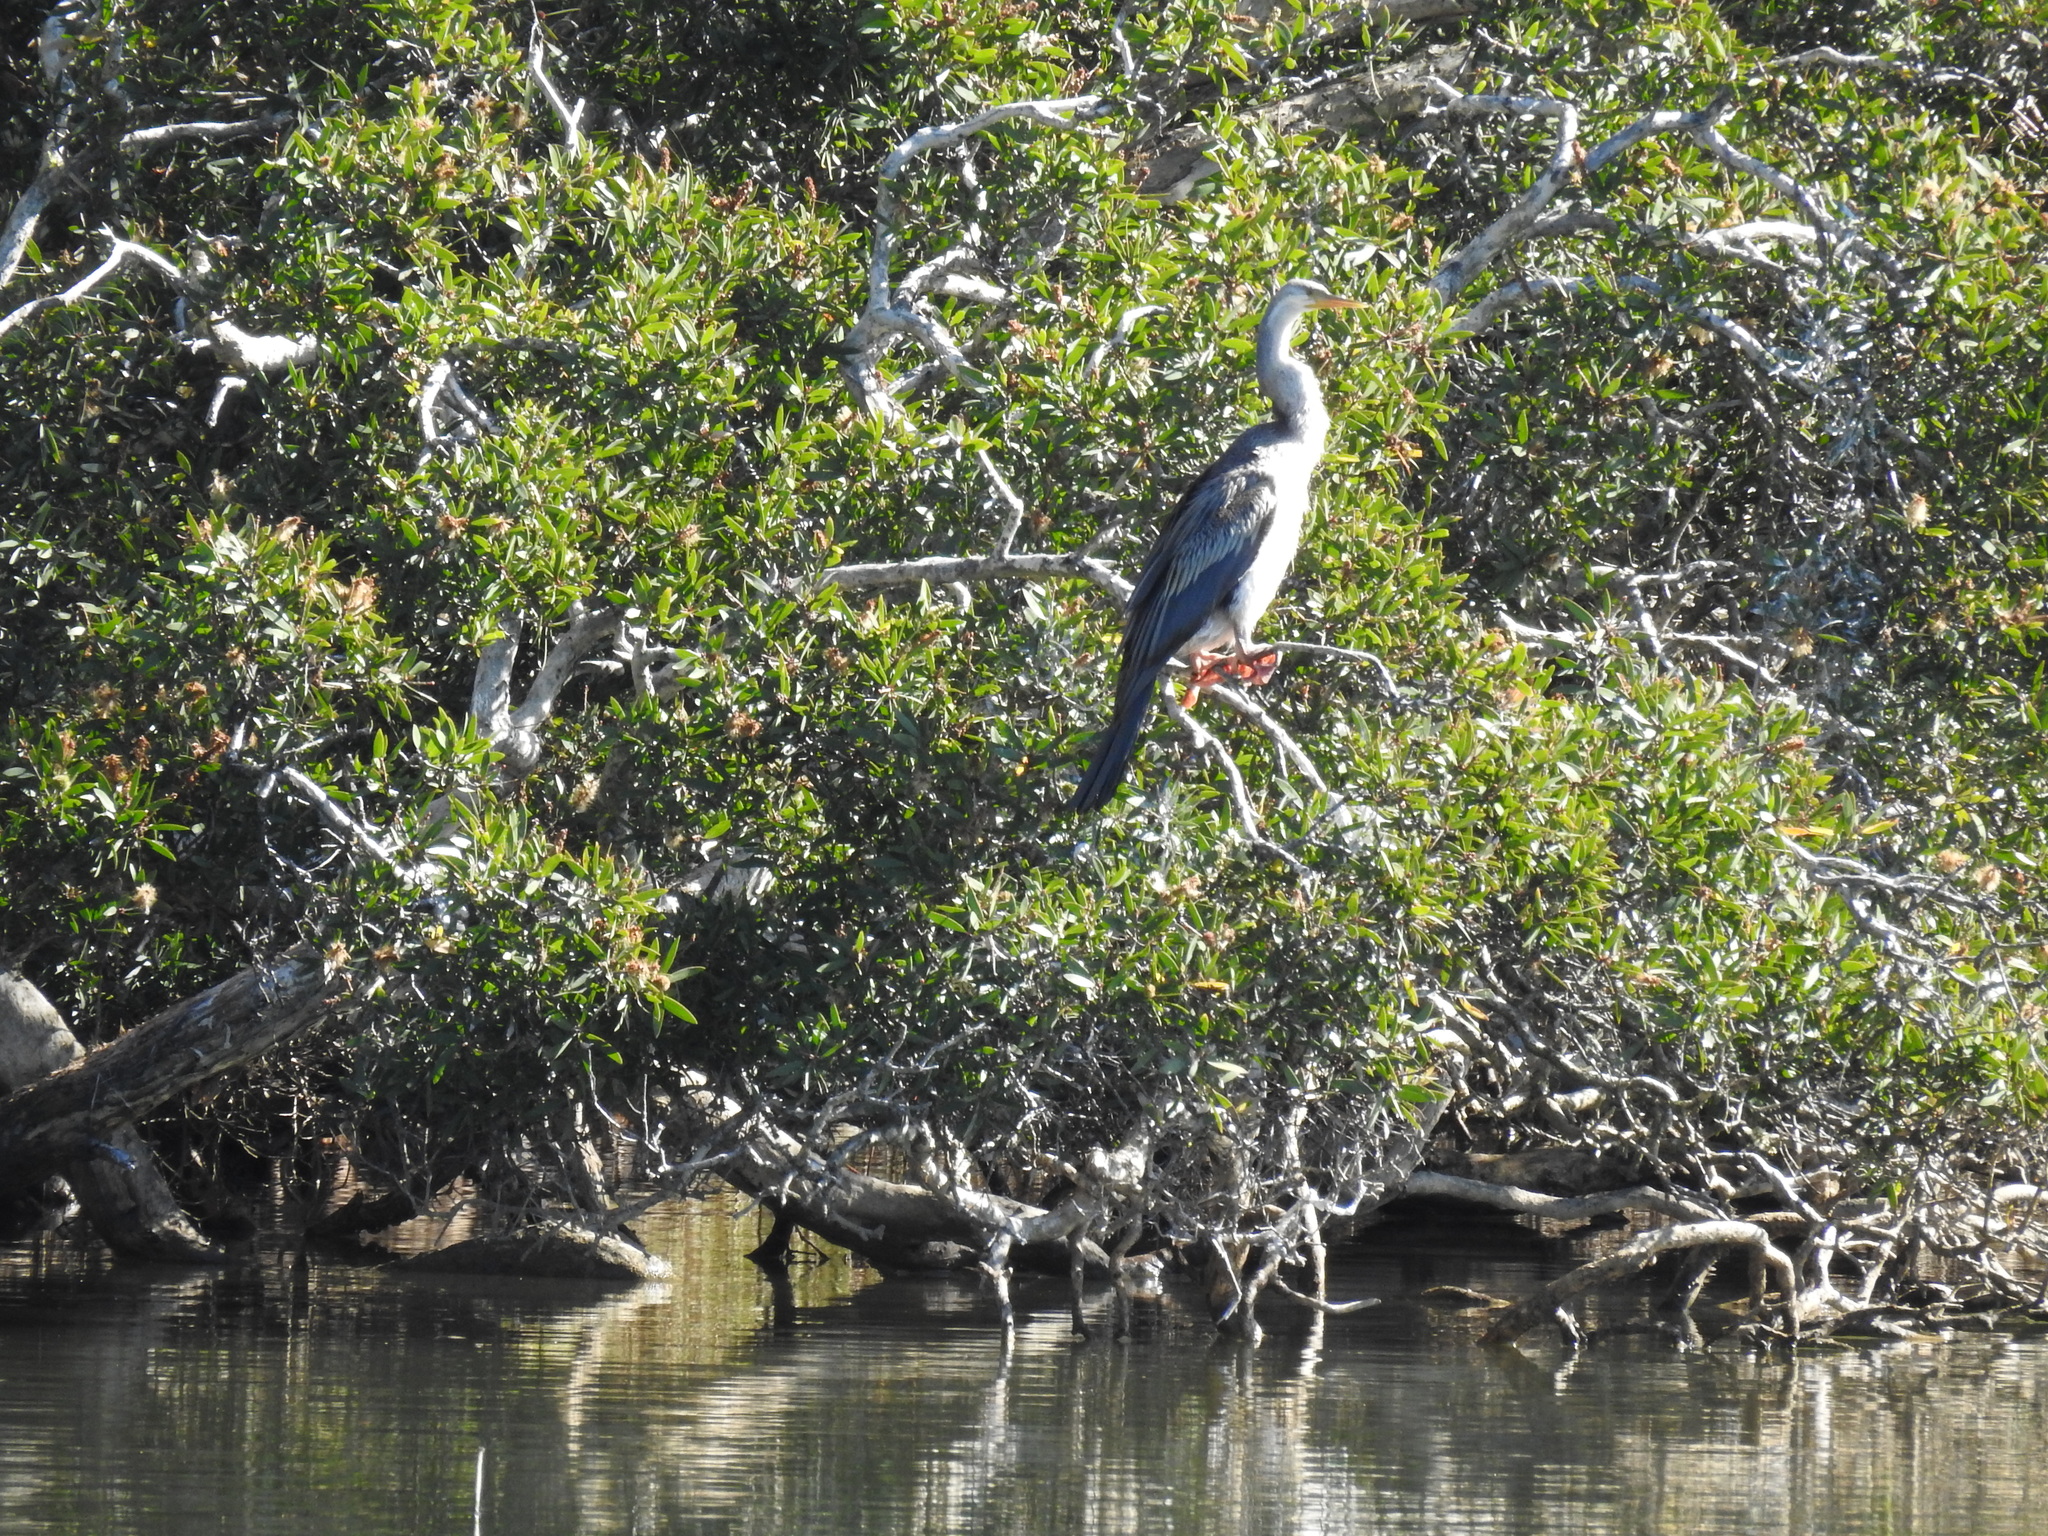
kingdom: Animalia
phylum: Chordata
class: Aves
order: Suliformes
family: Anhingidae
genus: Anhinga
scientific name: Anhinga novaehollandiae
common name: Australasian darter
